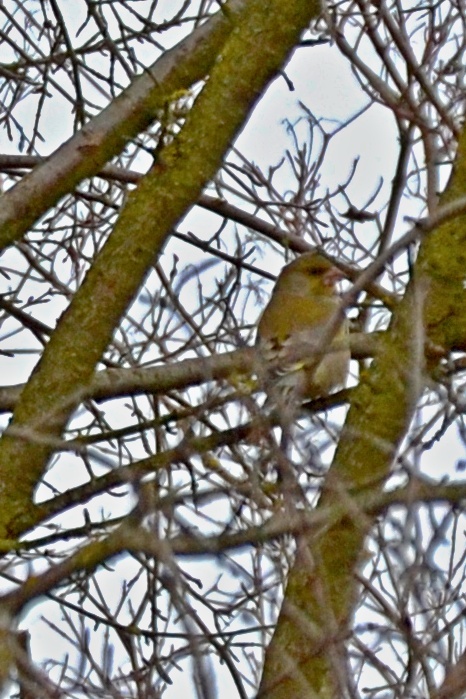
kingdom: Plantae
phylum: Tracheophyta
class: Liliopsida
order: Poales
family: Poaceae
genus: Chloris
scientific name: Chloris chloris
